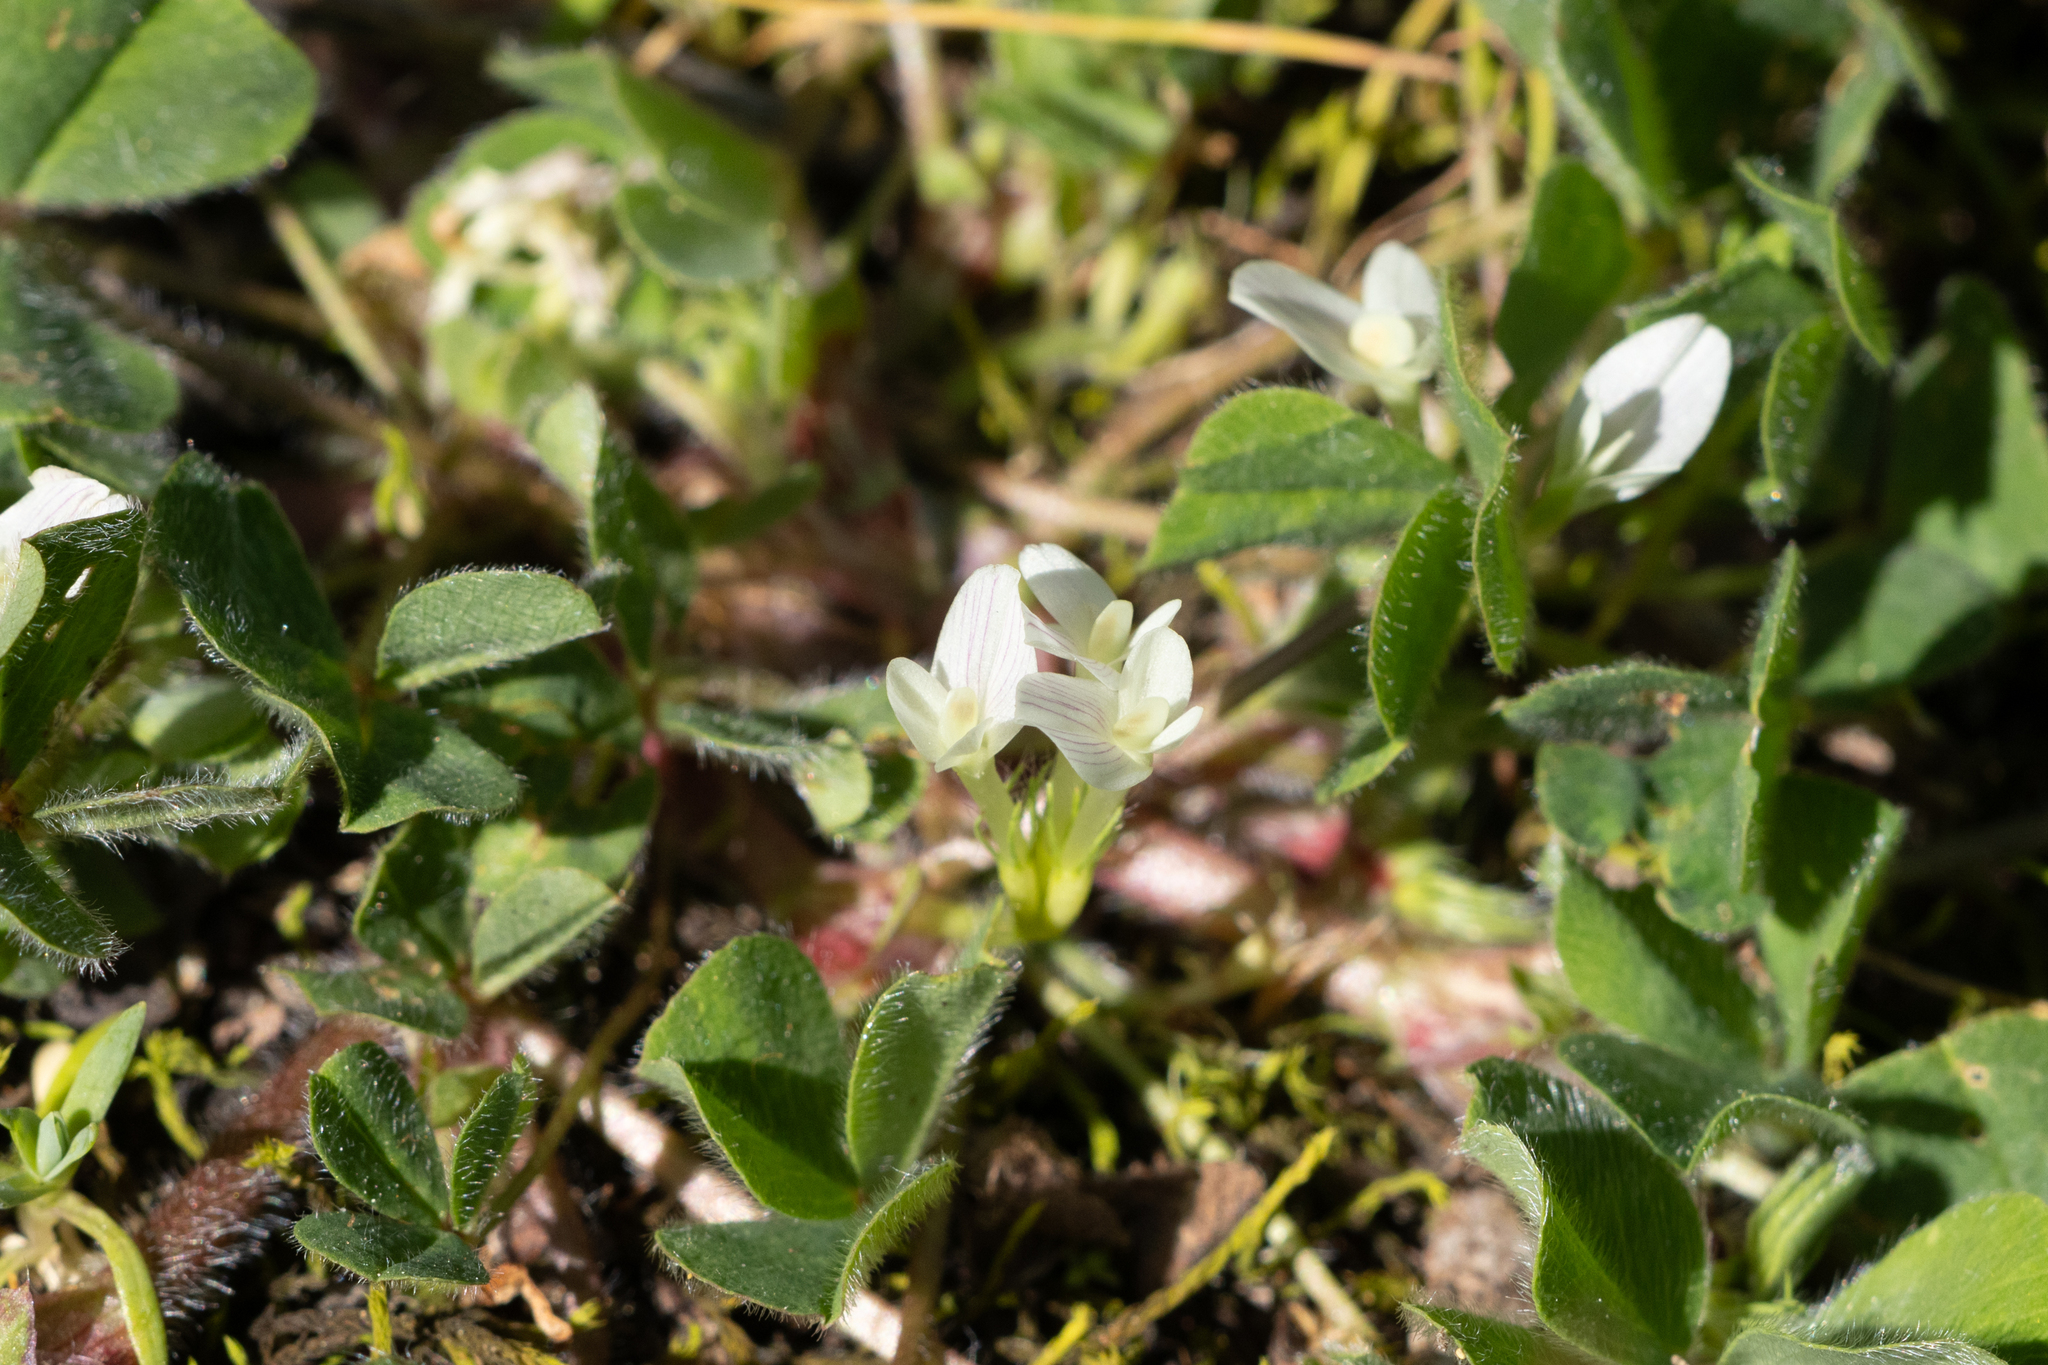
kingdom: Plantae
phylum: Tracheophyta
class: Magnoliopsida
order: Fabales
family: Fabaceae
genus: Trifolium
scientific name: Trifolium subterraneum
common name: Subterranean clover
